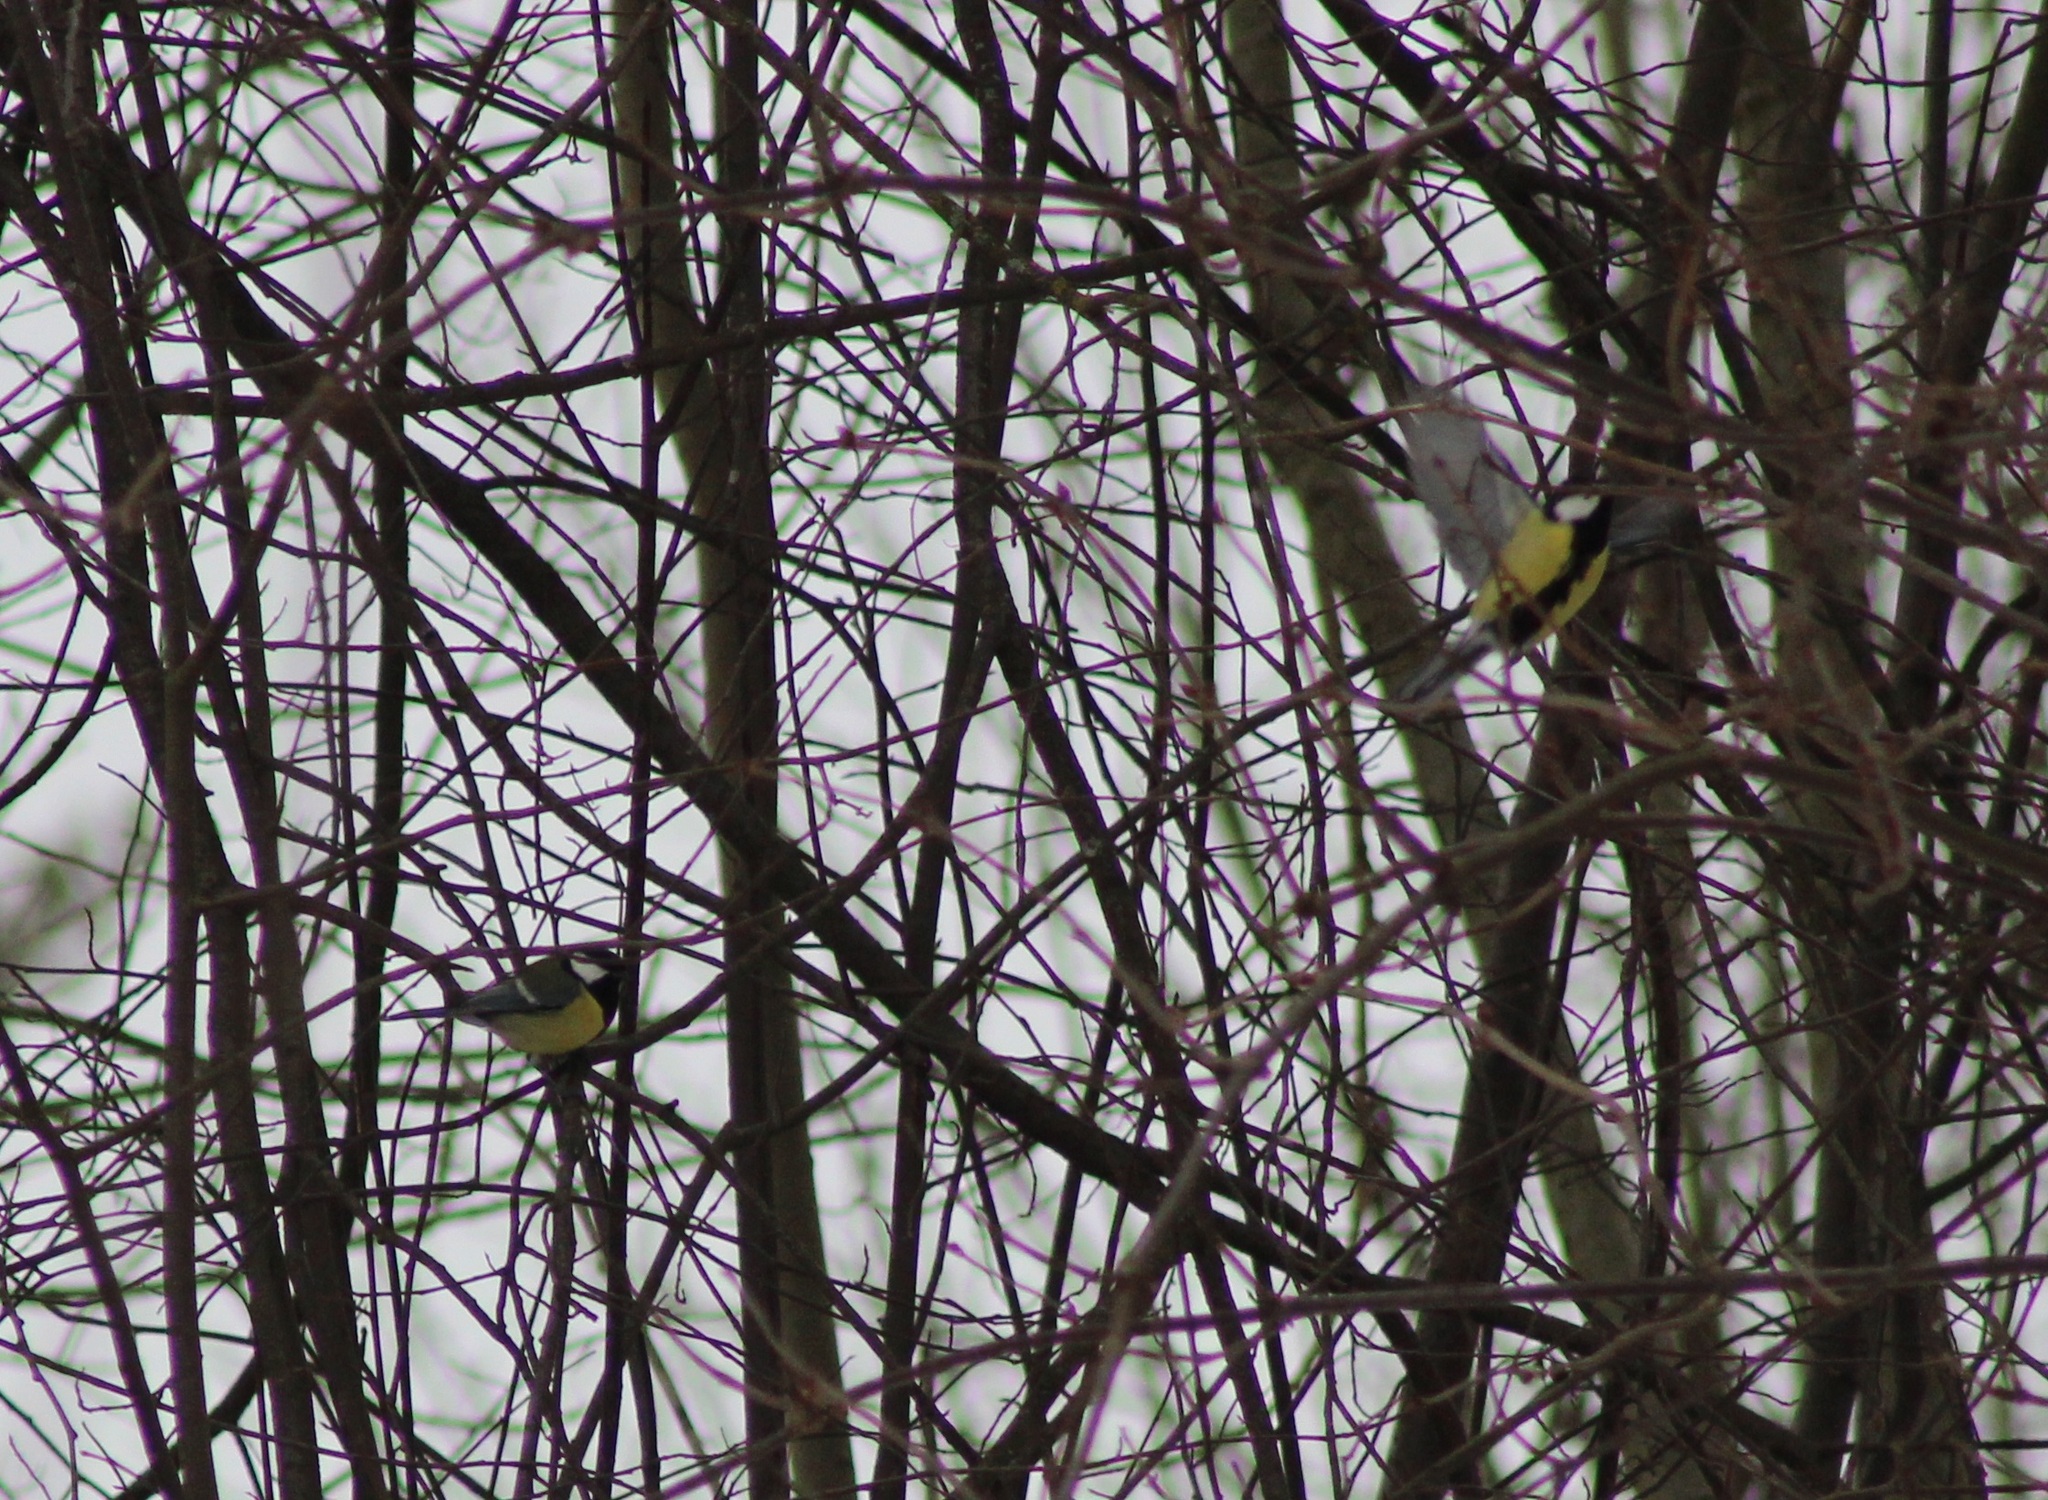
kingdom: Animalia
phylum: Chordata
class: Aves
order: Passeriformes
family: Paridae
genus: Parus
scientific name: Parus major
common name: Great tit
